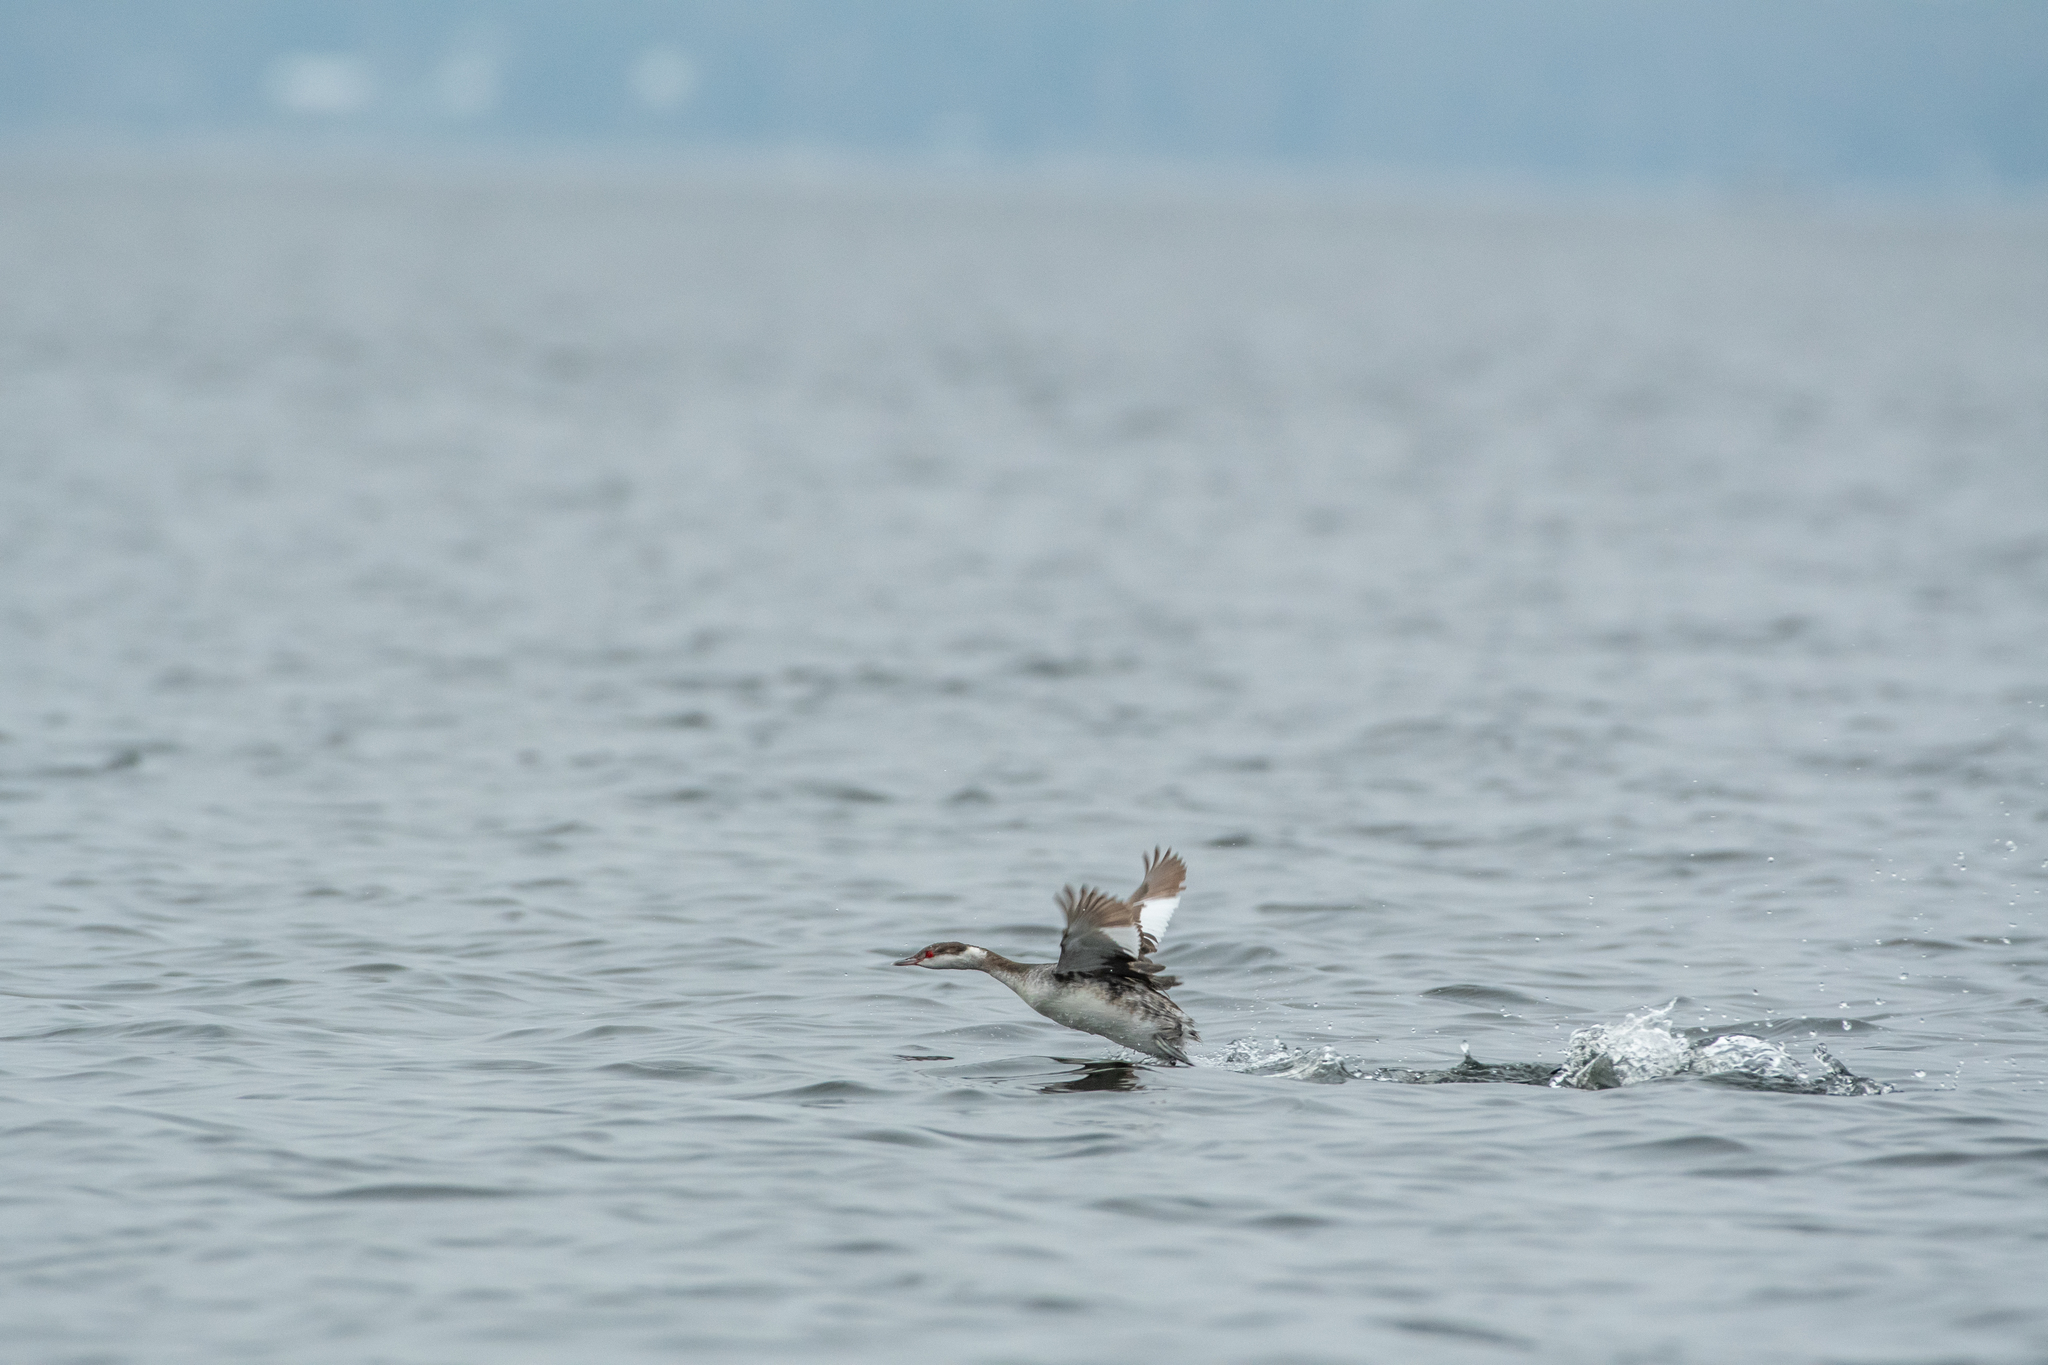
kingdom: Animalia
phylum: Chordata
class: Aves
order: Podicipediformes
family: Podicipedidae
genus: Podiceps
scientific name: Podiceps auritus
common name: Horned grebe
